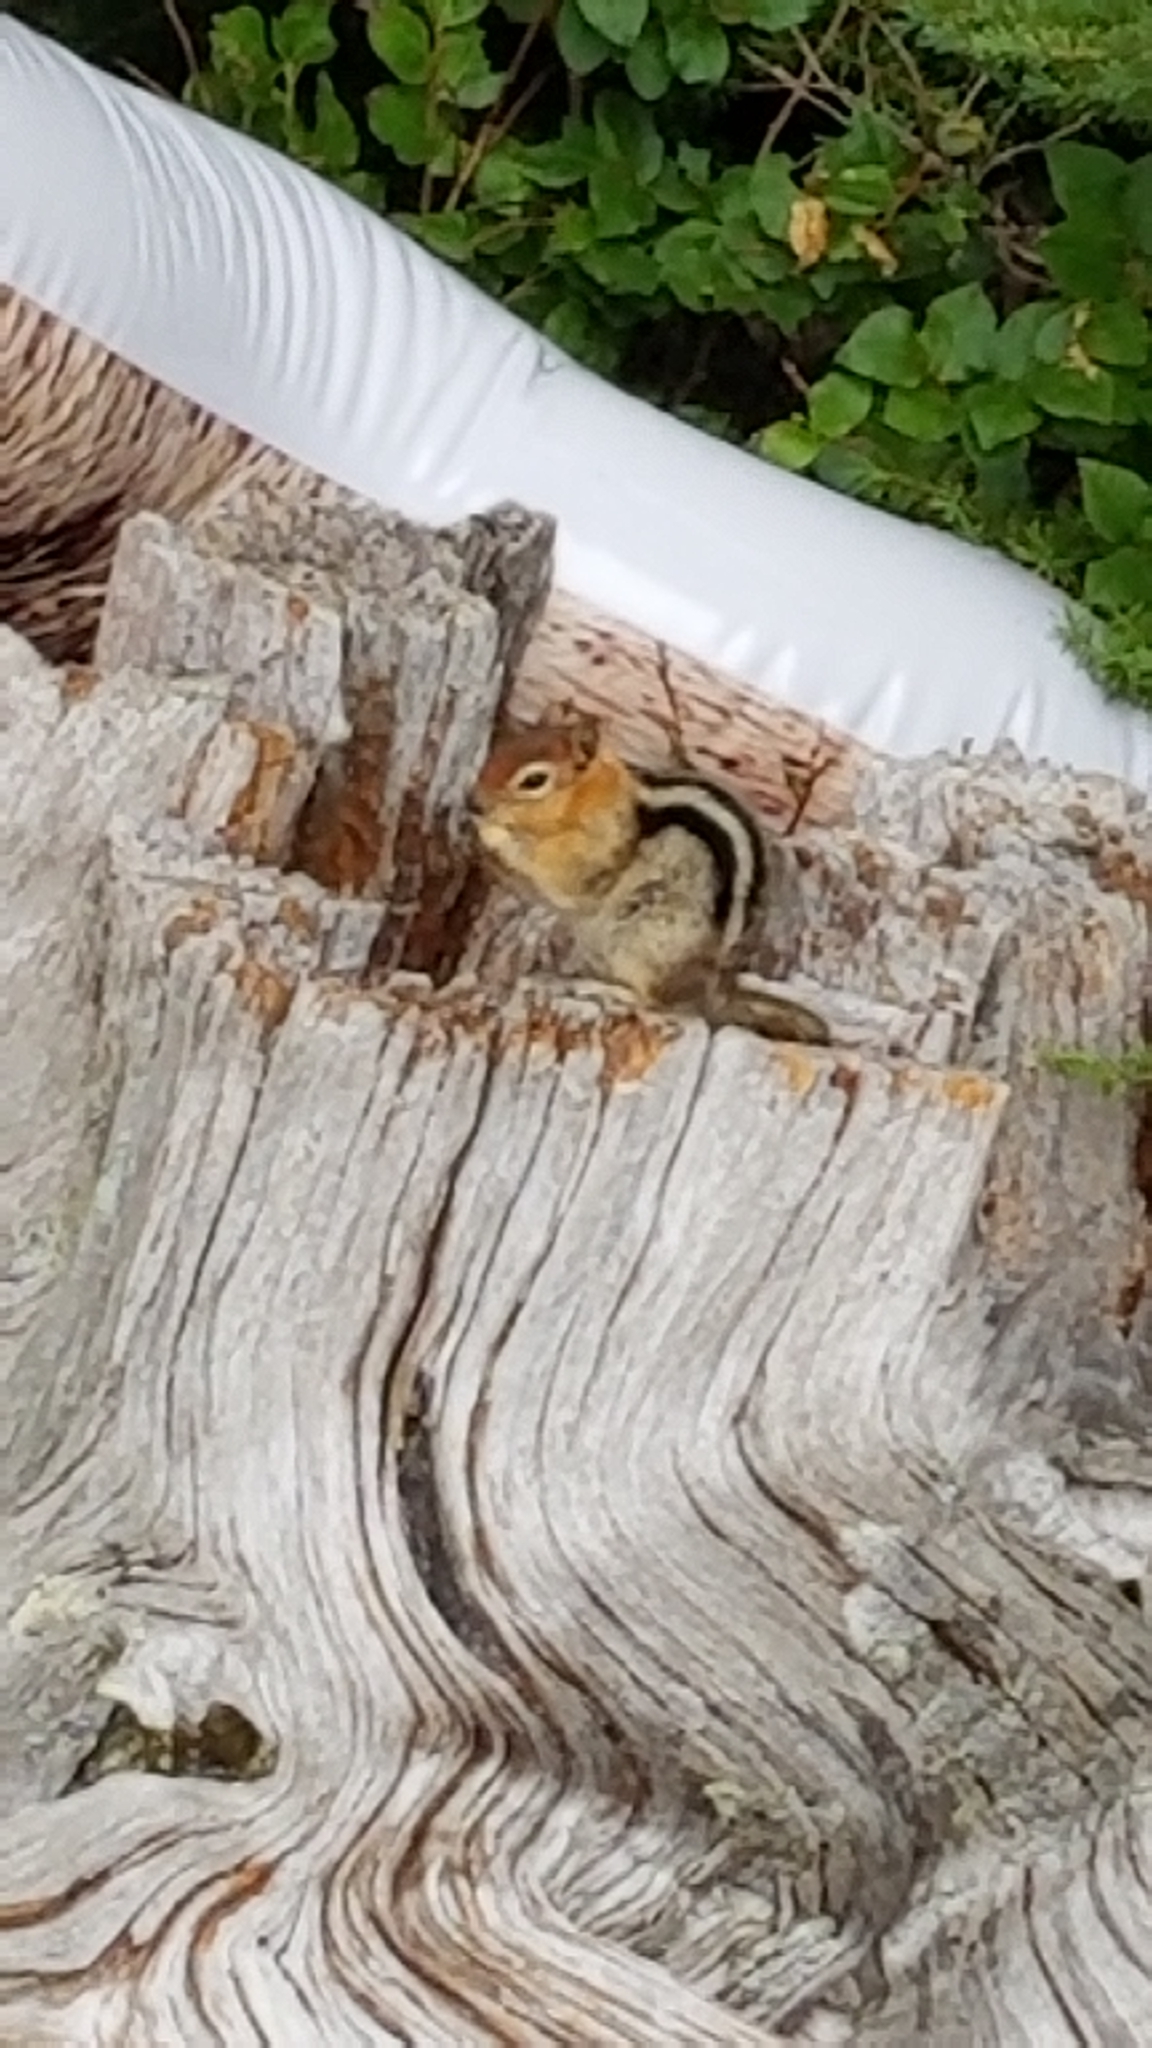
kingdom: Animalia
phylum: Chordata
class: Mammalia
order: Rodentia
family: Sciuridae
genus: Callospermophilus
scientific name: Callospermophilus lateralis
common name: Golden-mantled ground squirrel
